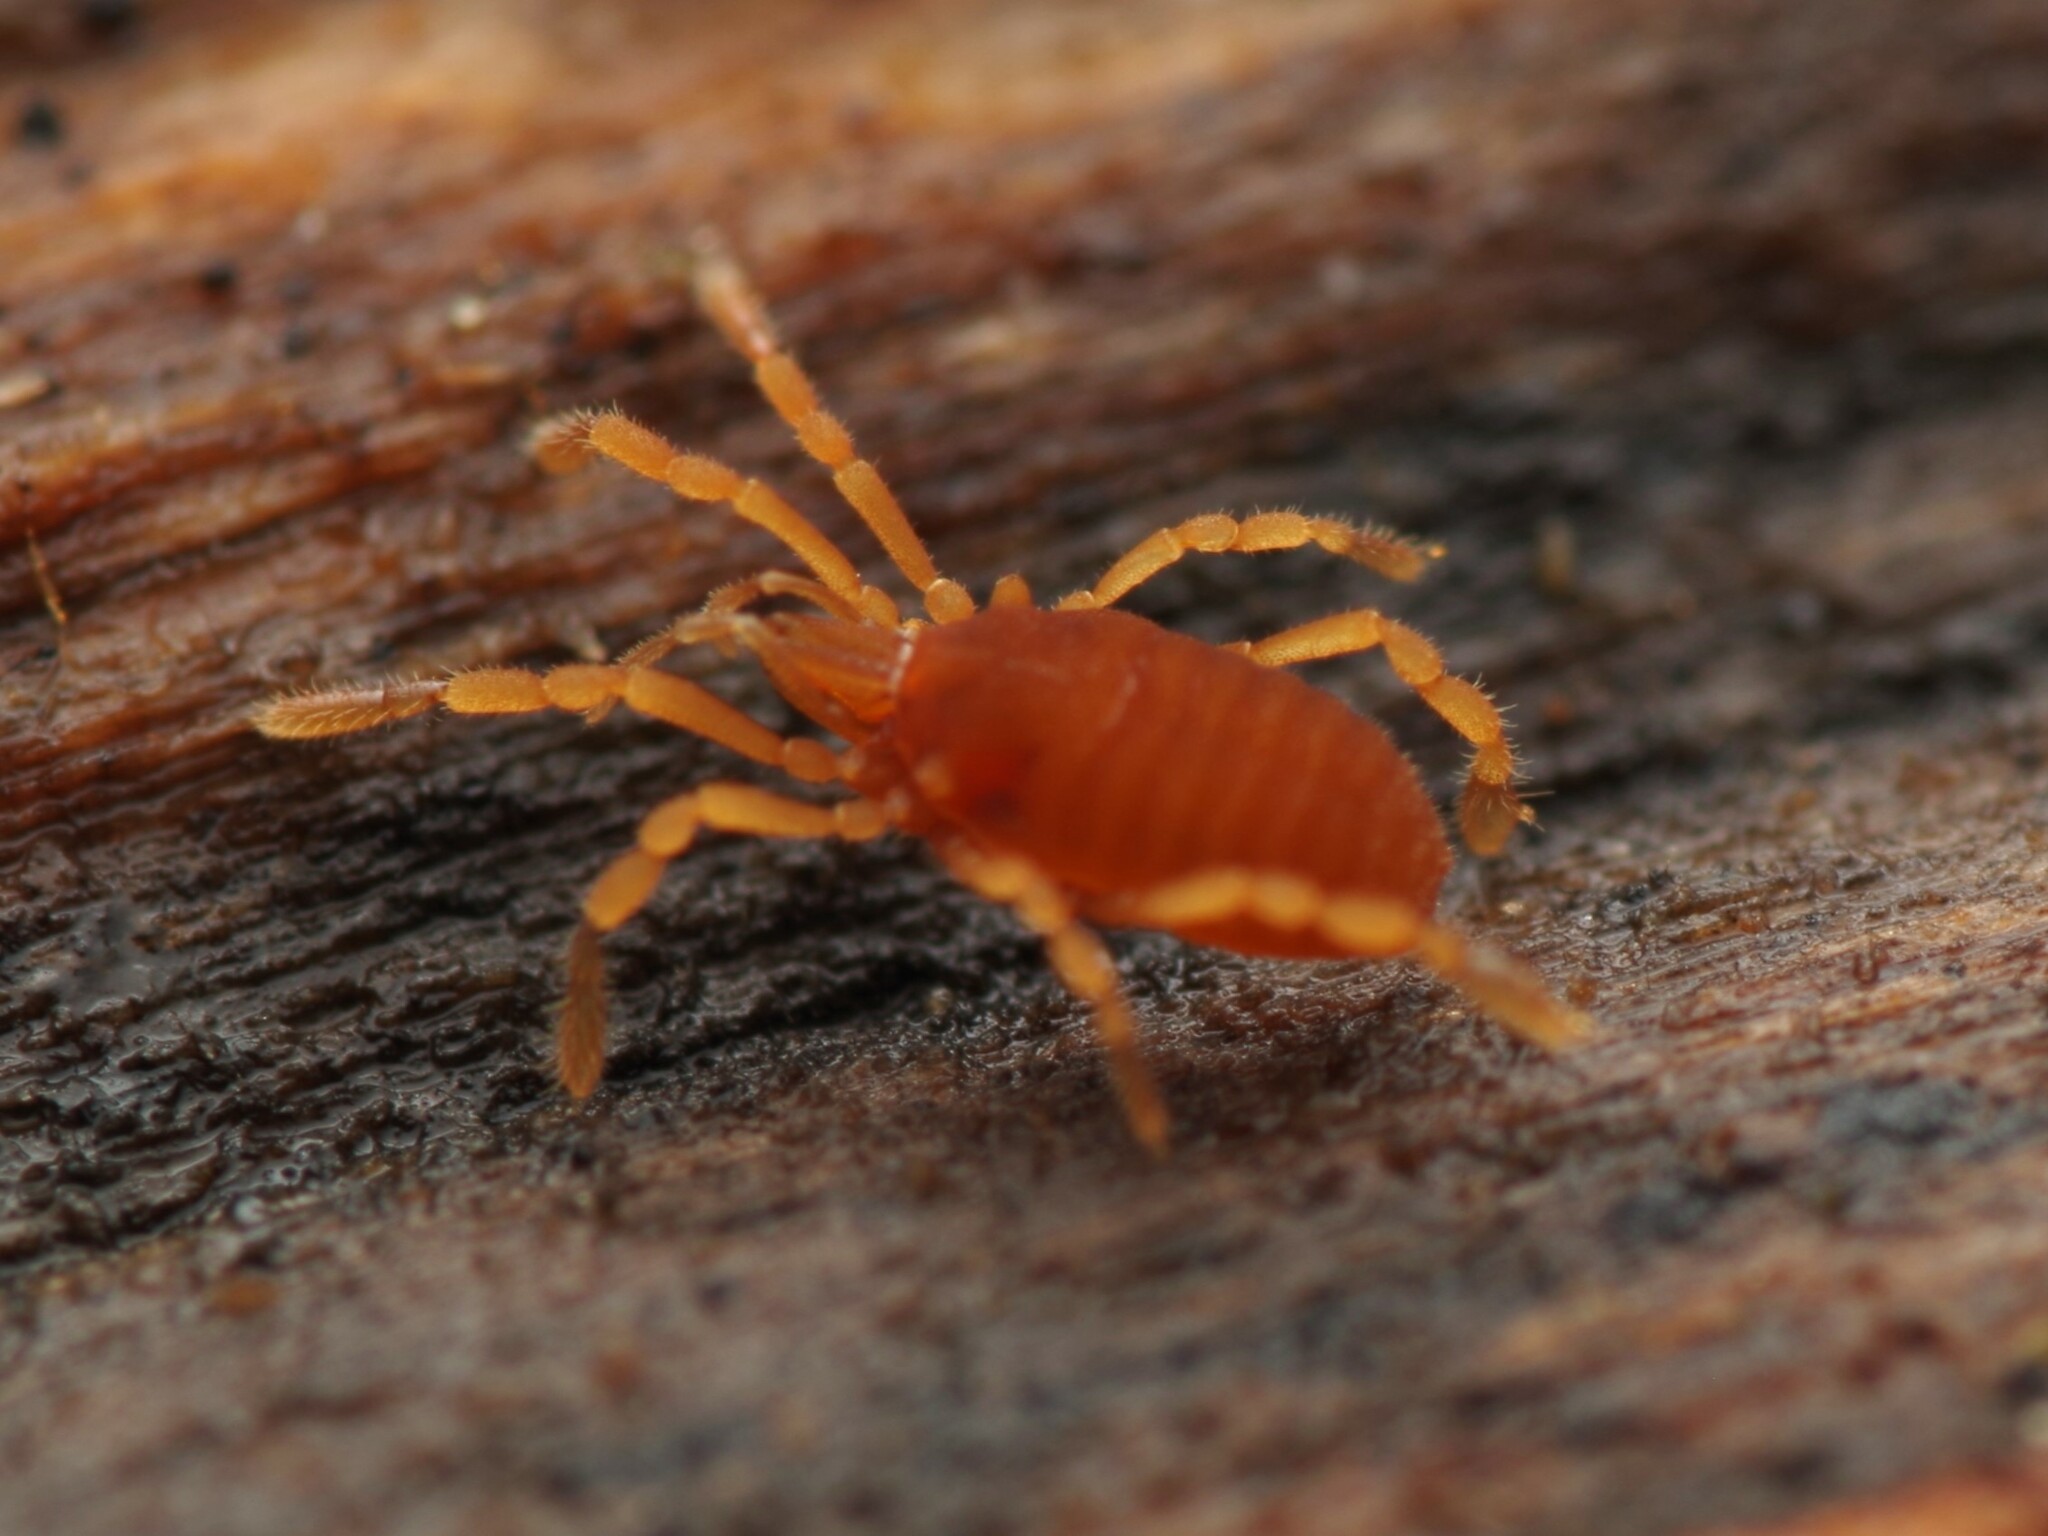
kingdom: Animalia
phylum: Arthropoda
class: Arachnida
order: Opiliones
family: Sironidae
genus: Siro
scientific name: Siro rubens
